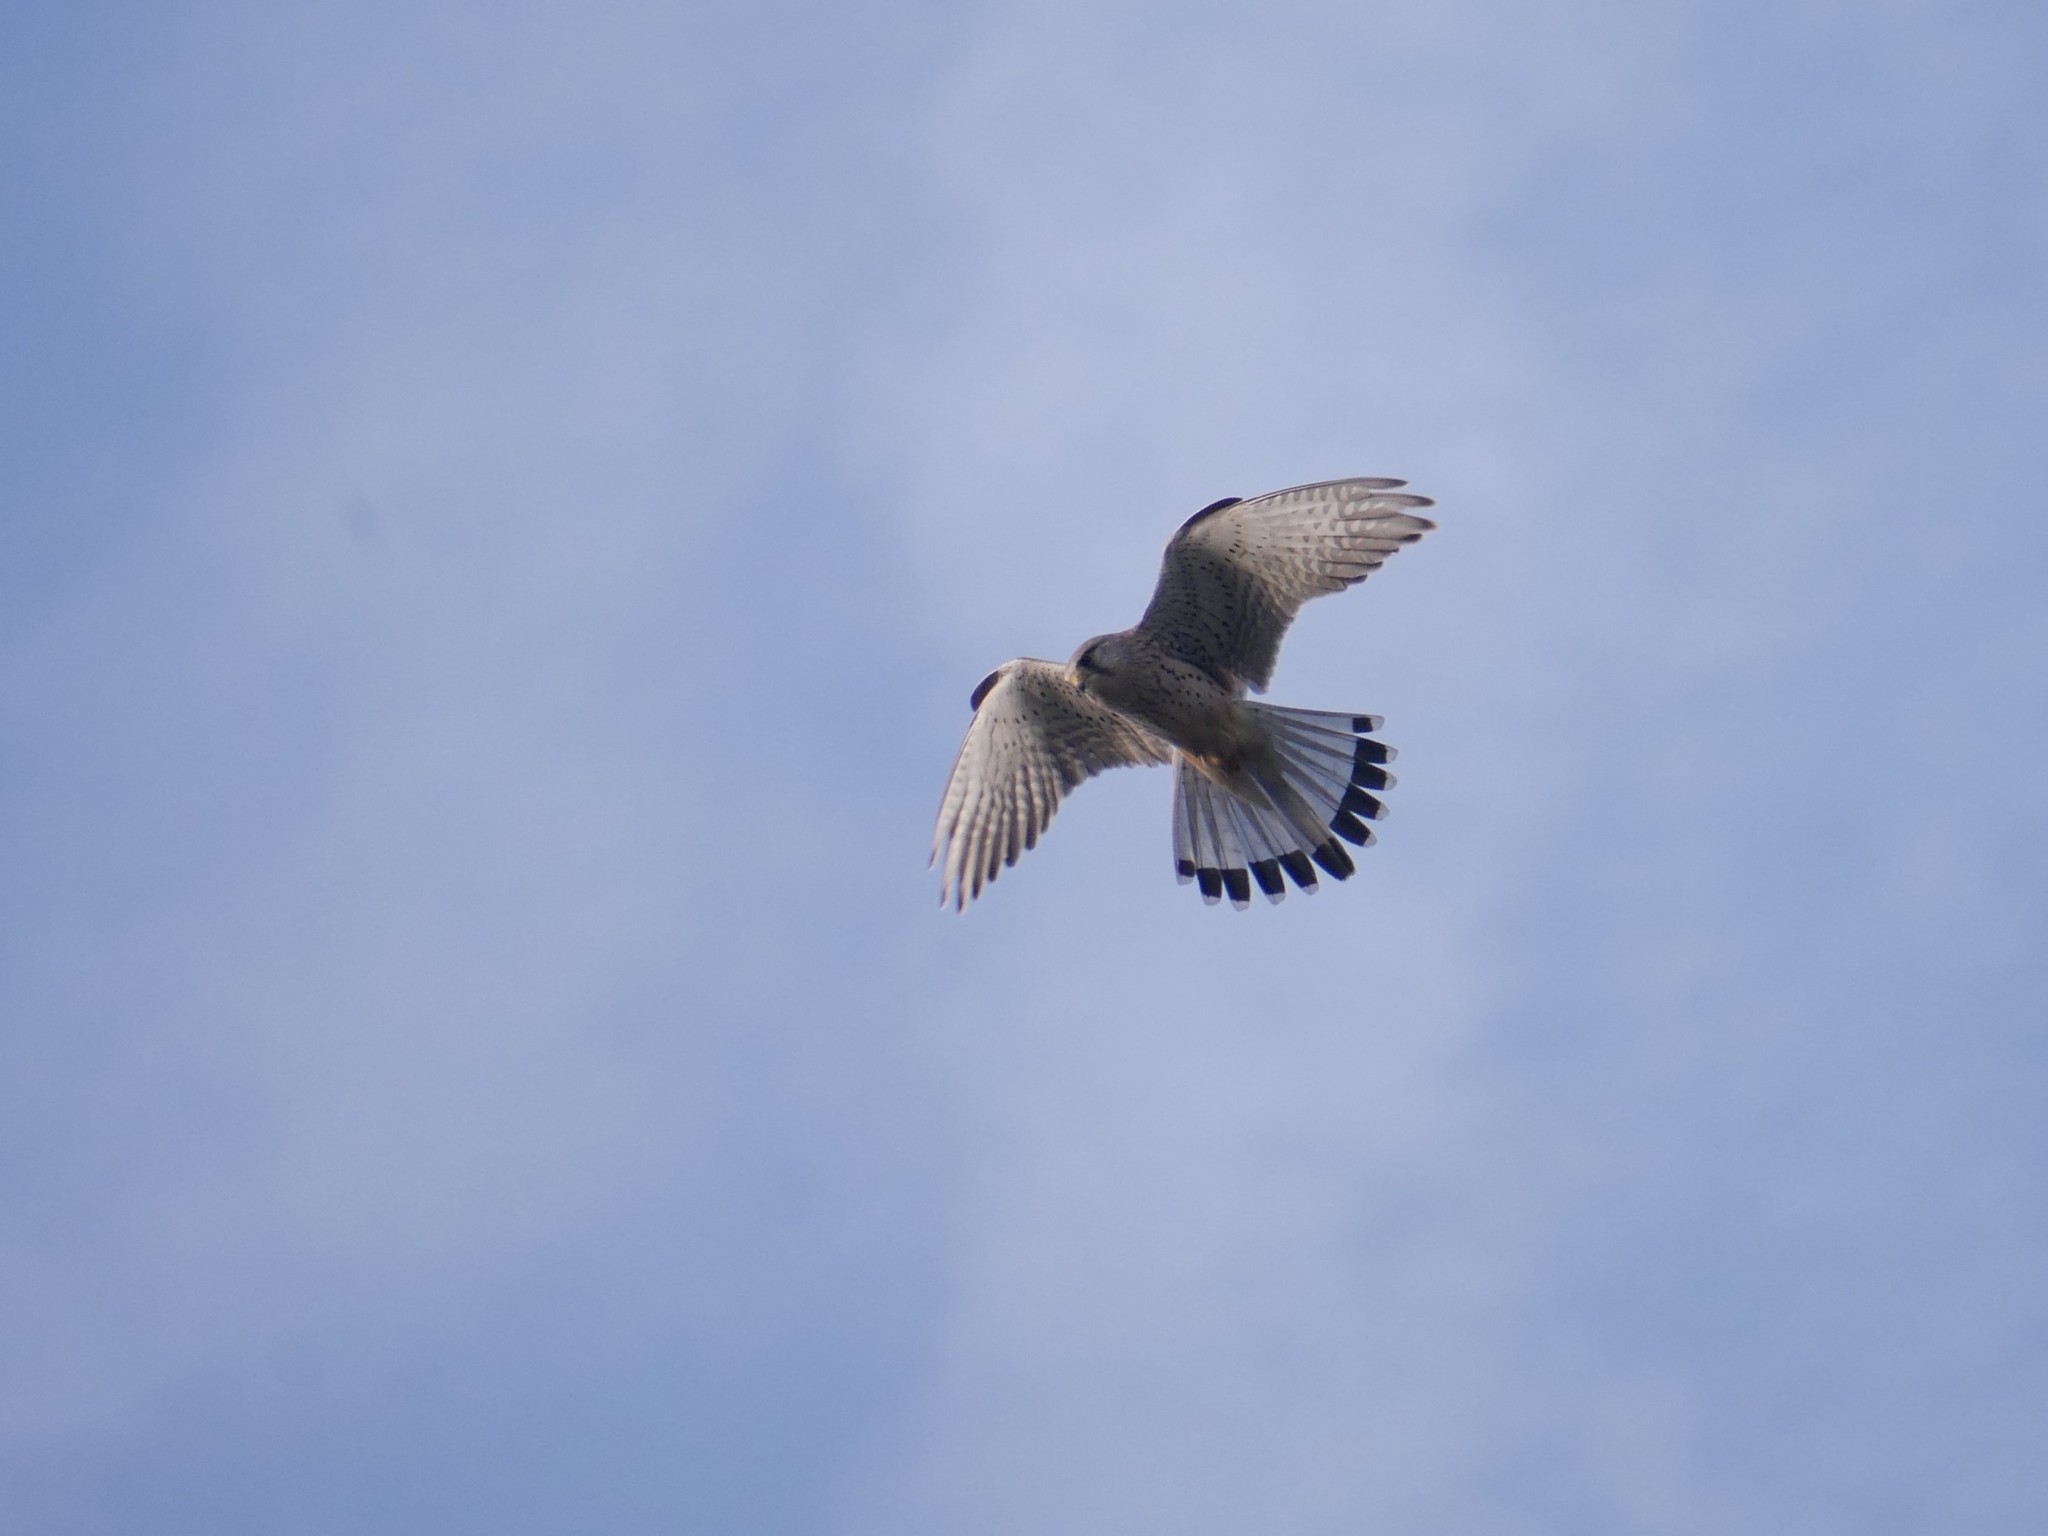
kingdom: Animalia
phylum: Chordata
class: Aves
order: Falconiformes
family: Falconidae
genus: Falco
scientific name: Falco tinnunculus
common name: Common kestrel
